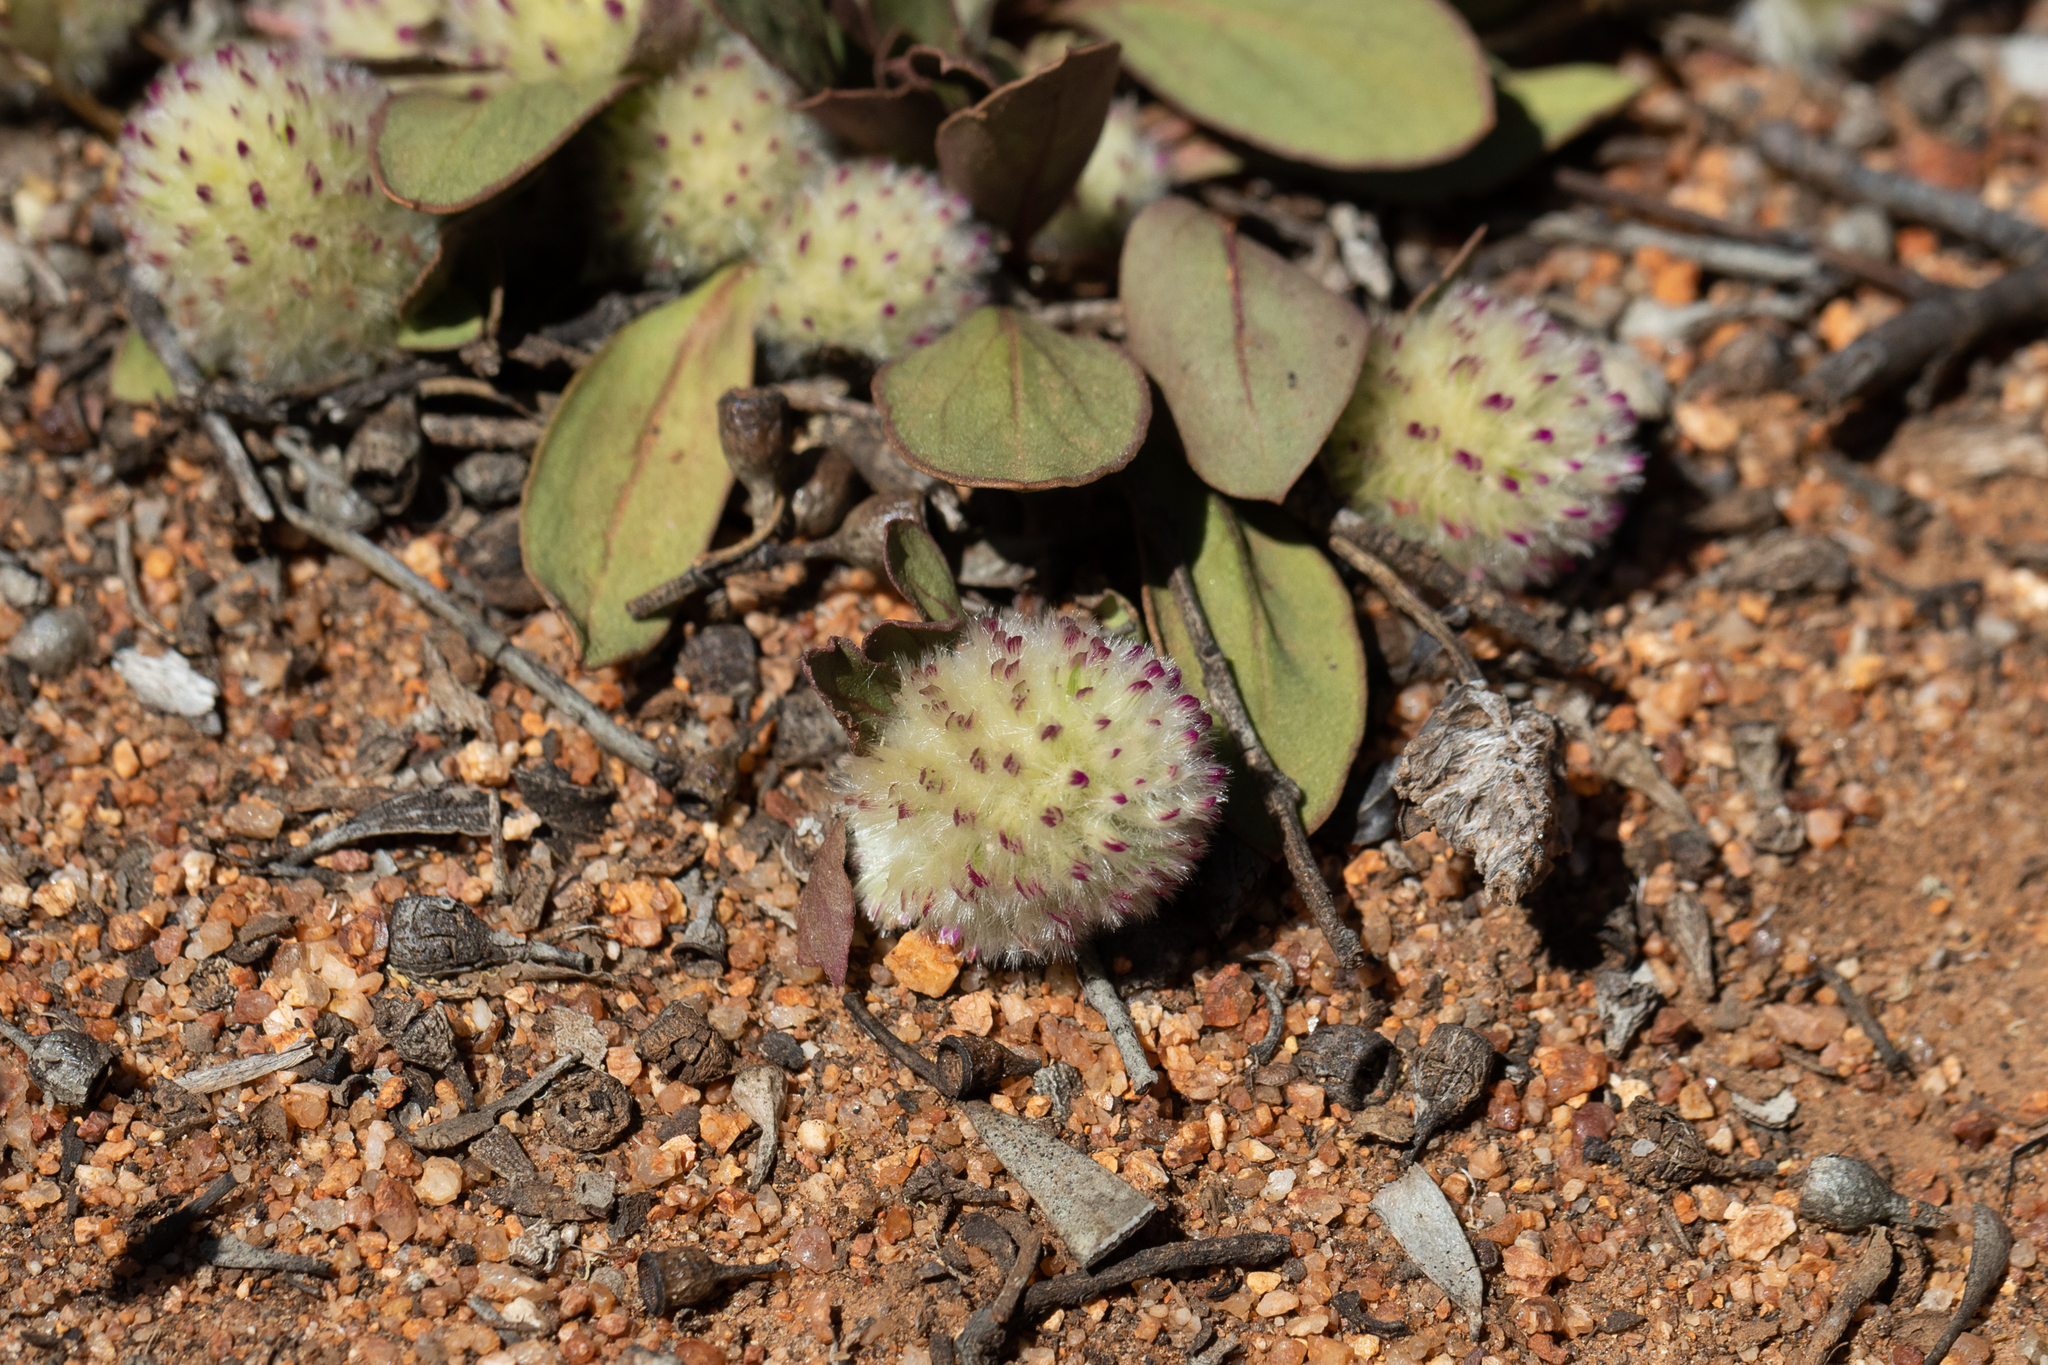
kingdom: Plantae
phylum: Tracheophyta
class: Magnoliopsida
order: Caryophyllales
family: Amaranthaceae
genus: Ptilotus
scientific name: Ptilotus holosericeus
